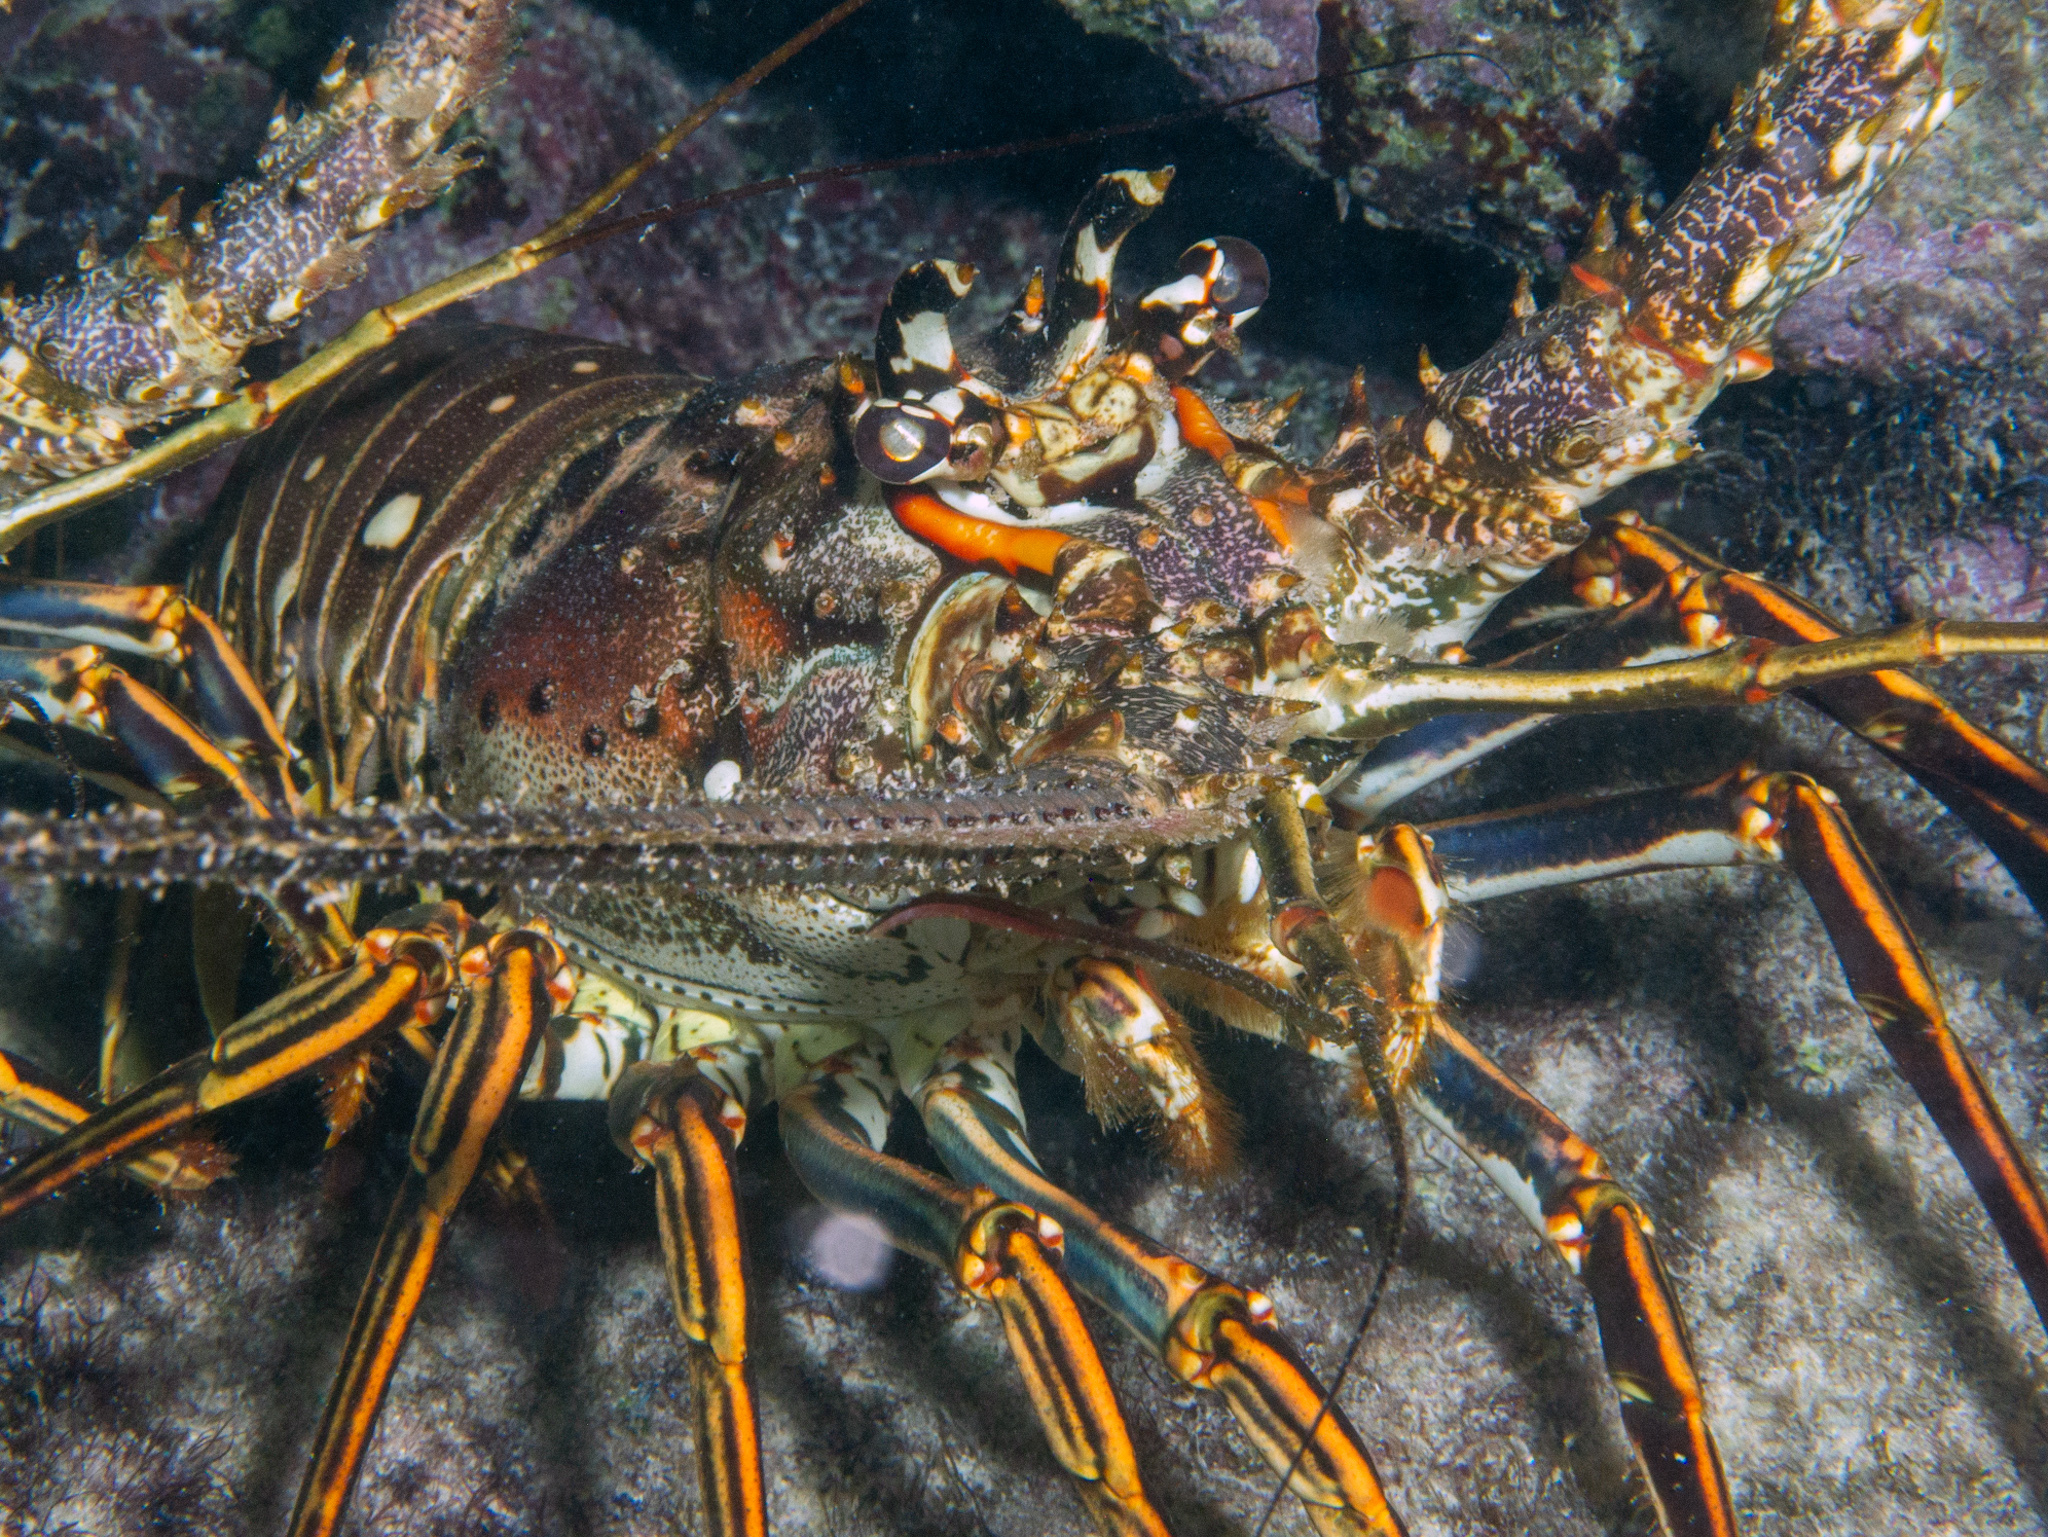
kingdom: Animalia
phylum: Arthropoda
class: Malacostraca
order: Decapoda
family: Palinuridae
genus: Panulirus
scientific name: Panulirus argus
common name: Caribbean spiny lobster
